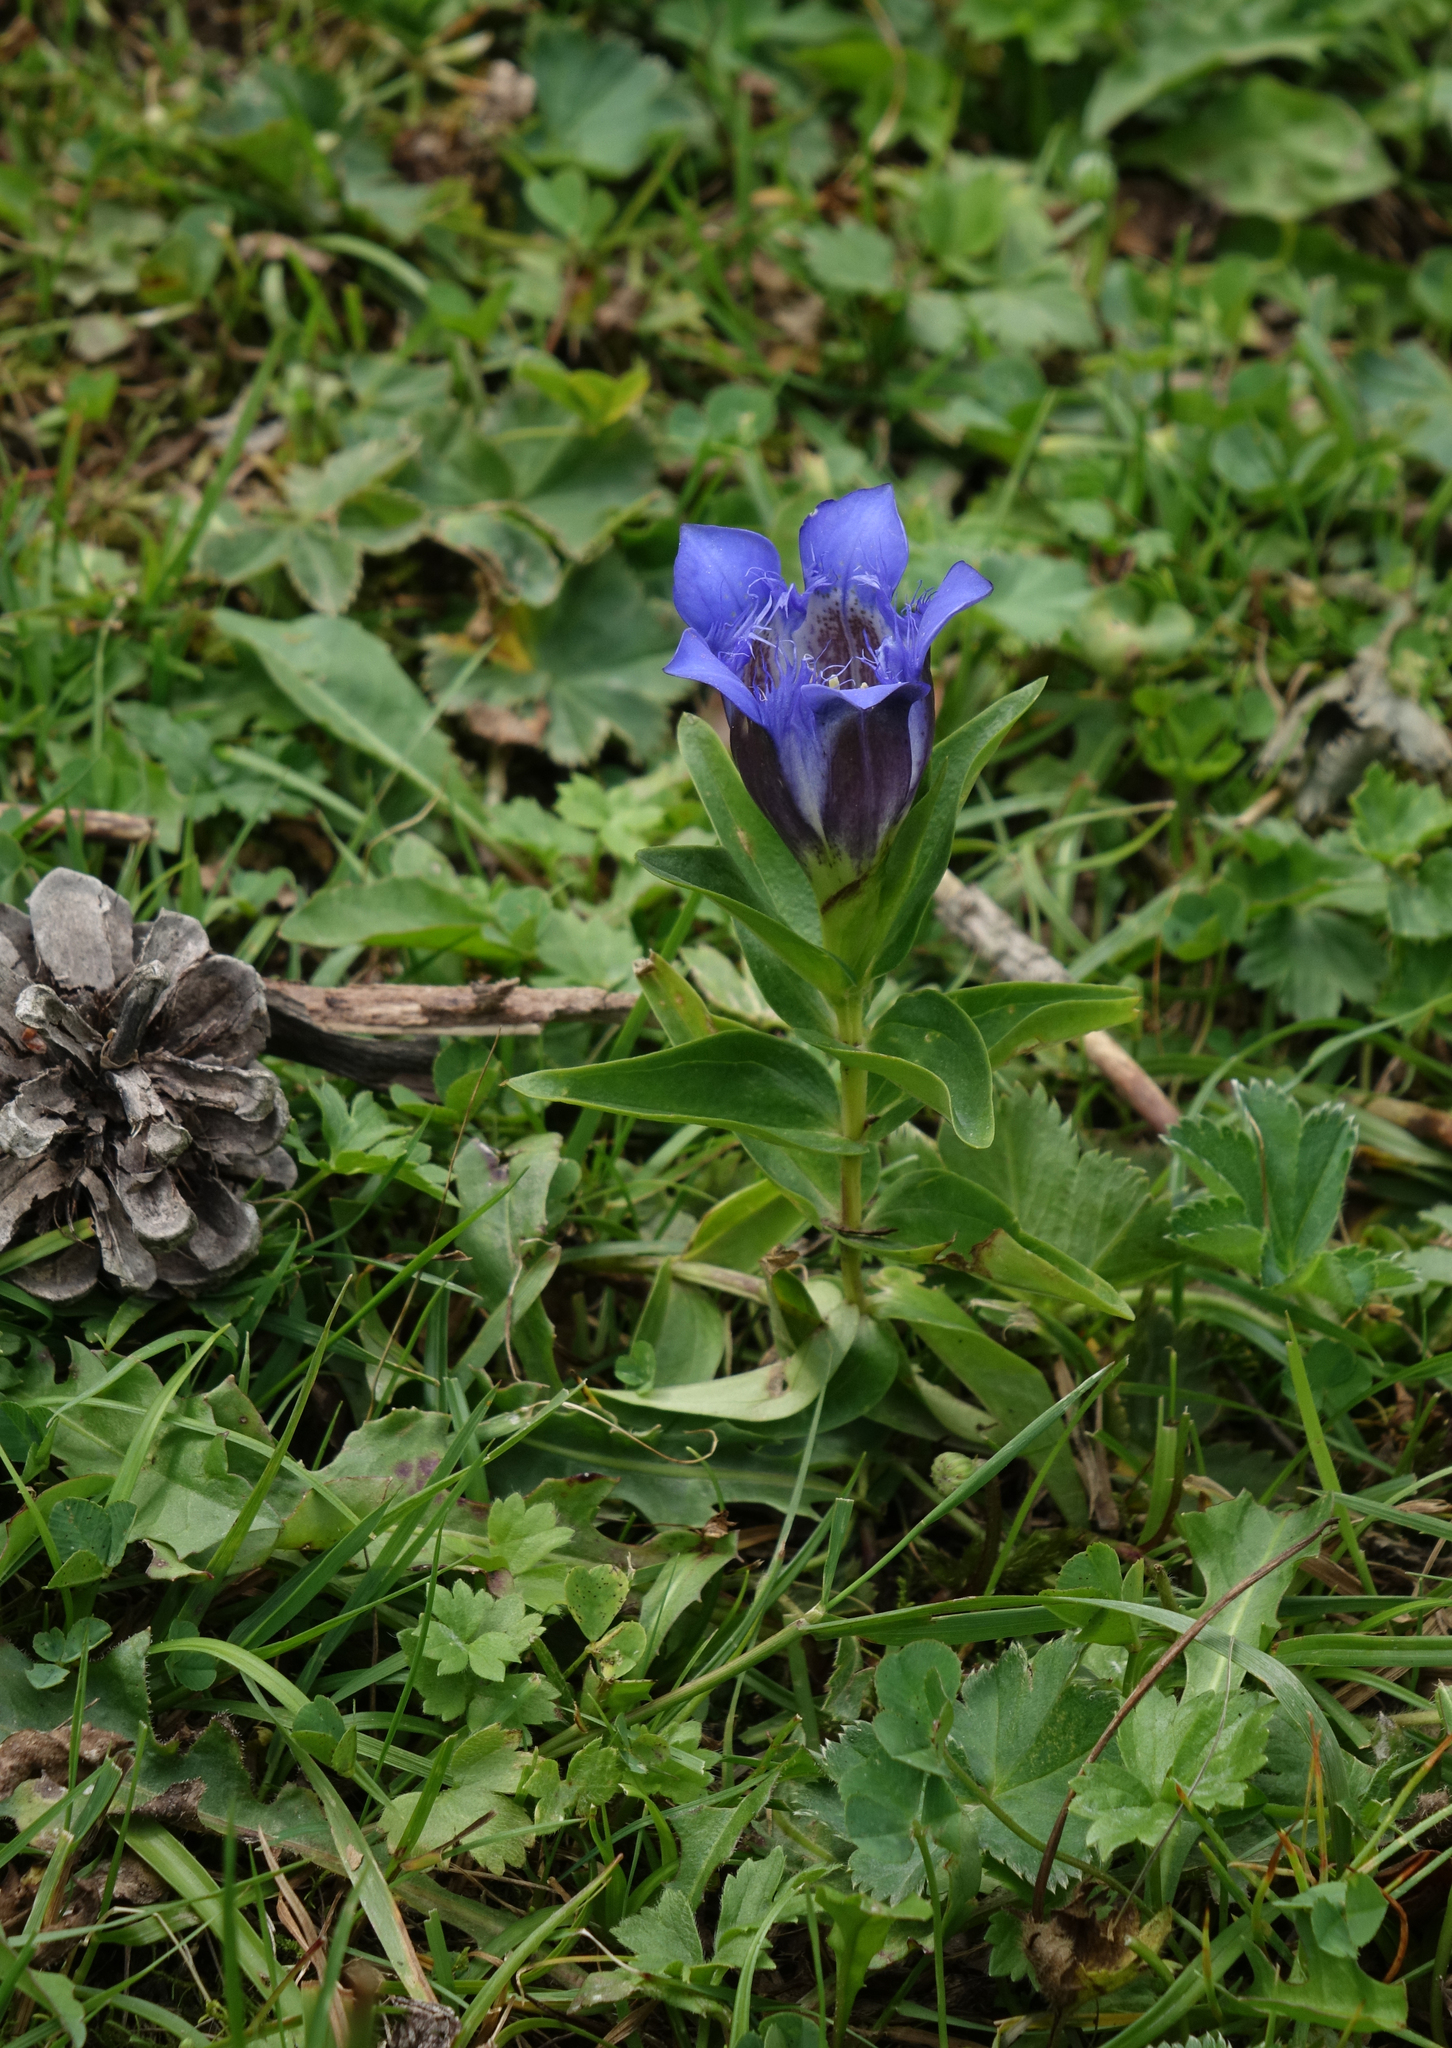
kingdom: Plantae
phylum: Tracheophyta
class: Magnoliopsida
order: Gentianales
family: Gentianaceae
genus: Gentiana
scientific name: Gentiana septemfida
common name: Crested gentian
